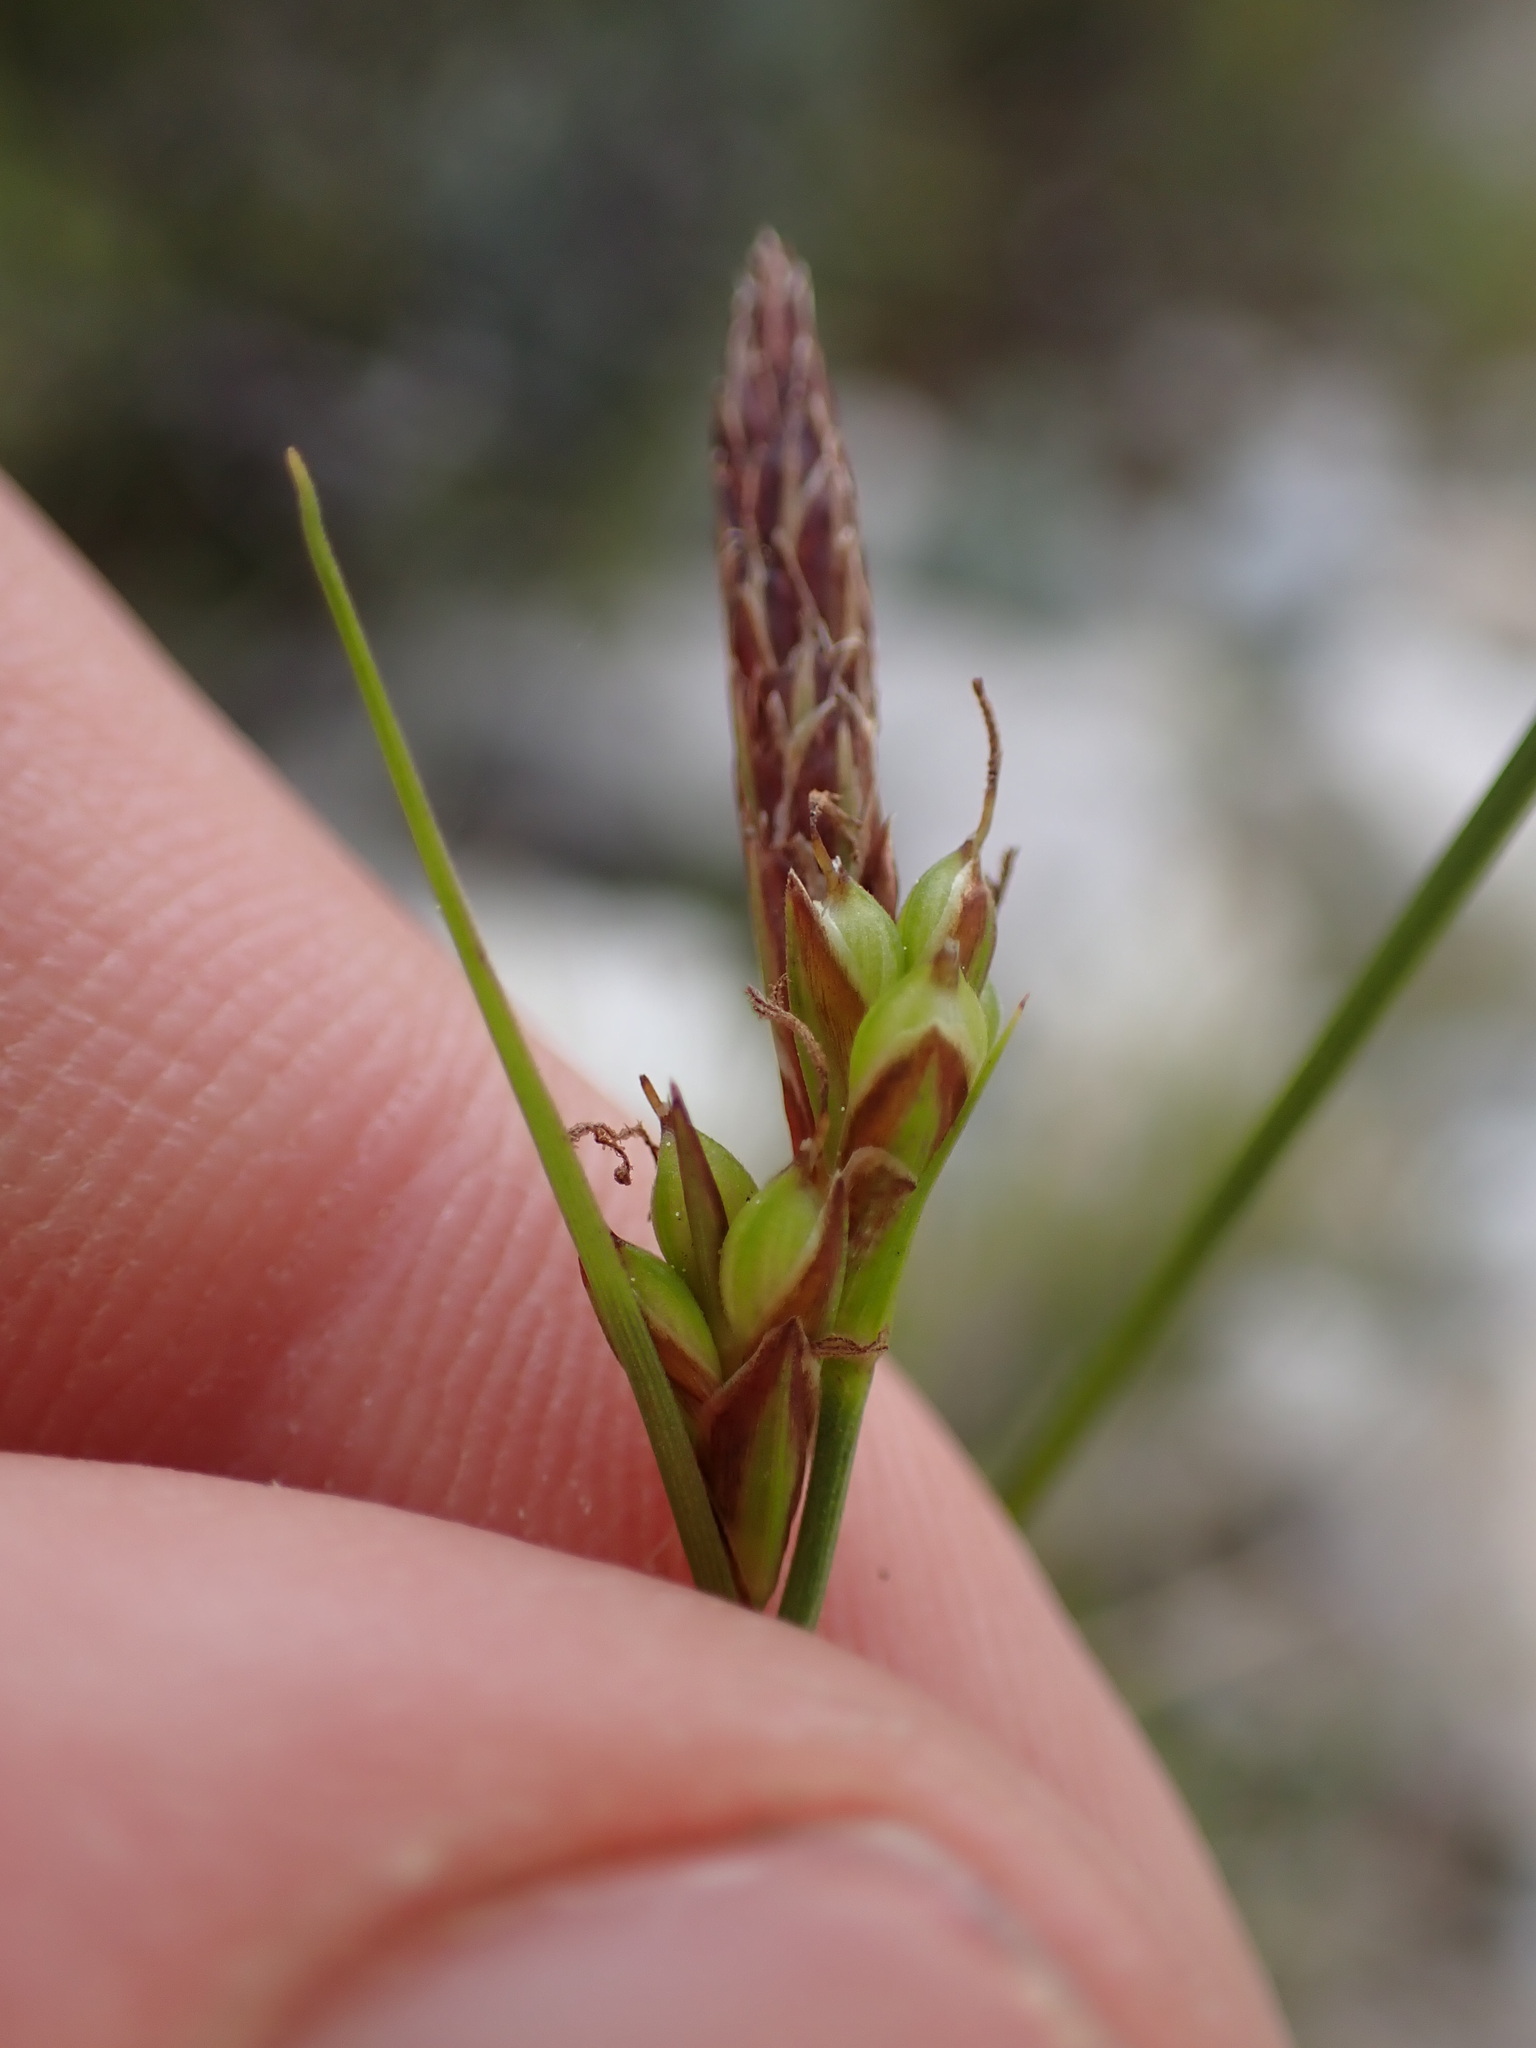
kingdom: Plantae
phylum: Tracheophyta
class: Liliopsida
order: Poales
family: Cyperaceae
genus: Carex
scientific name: Carex halleriana
